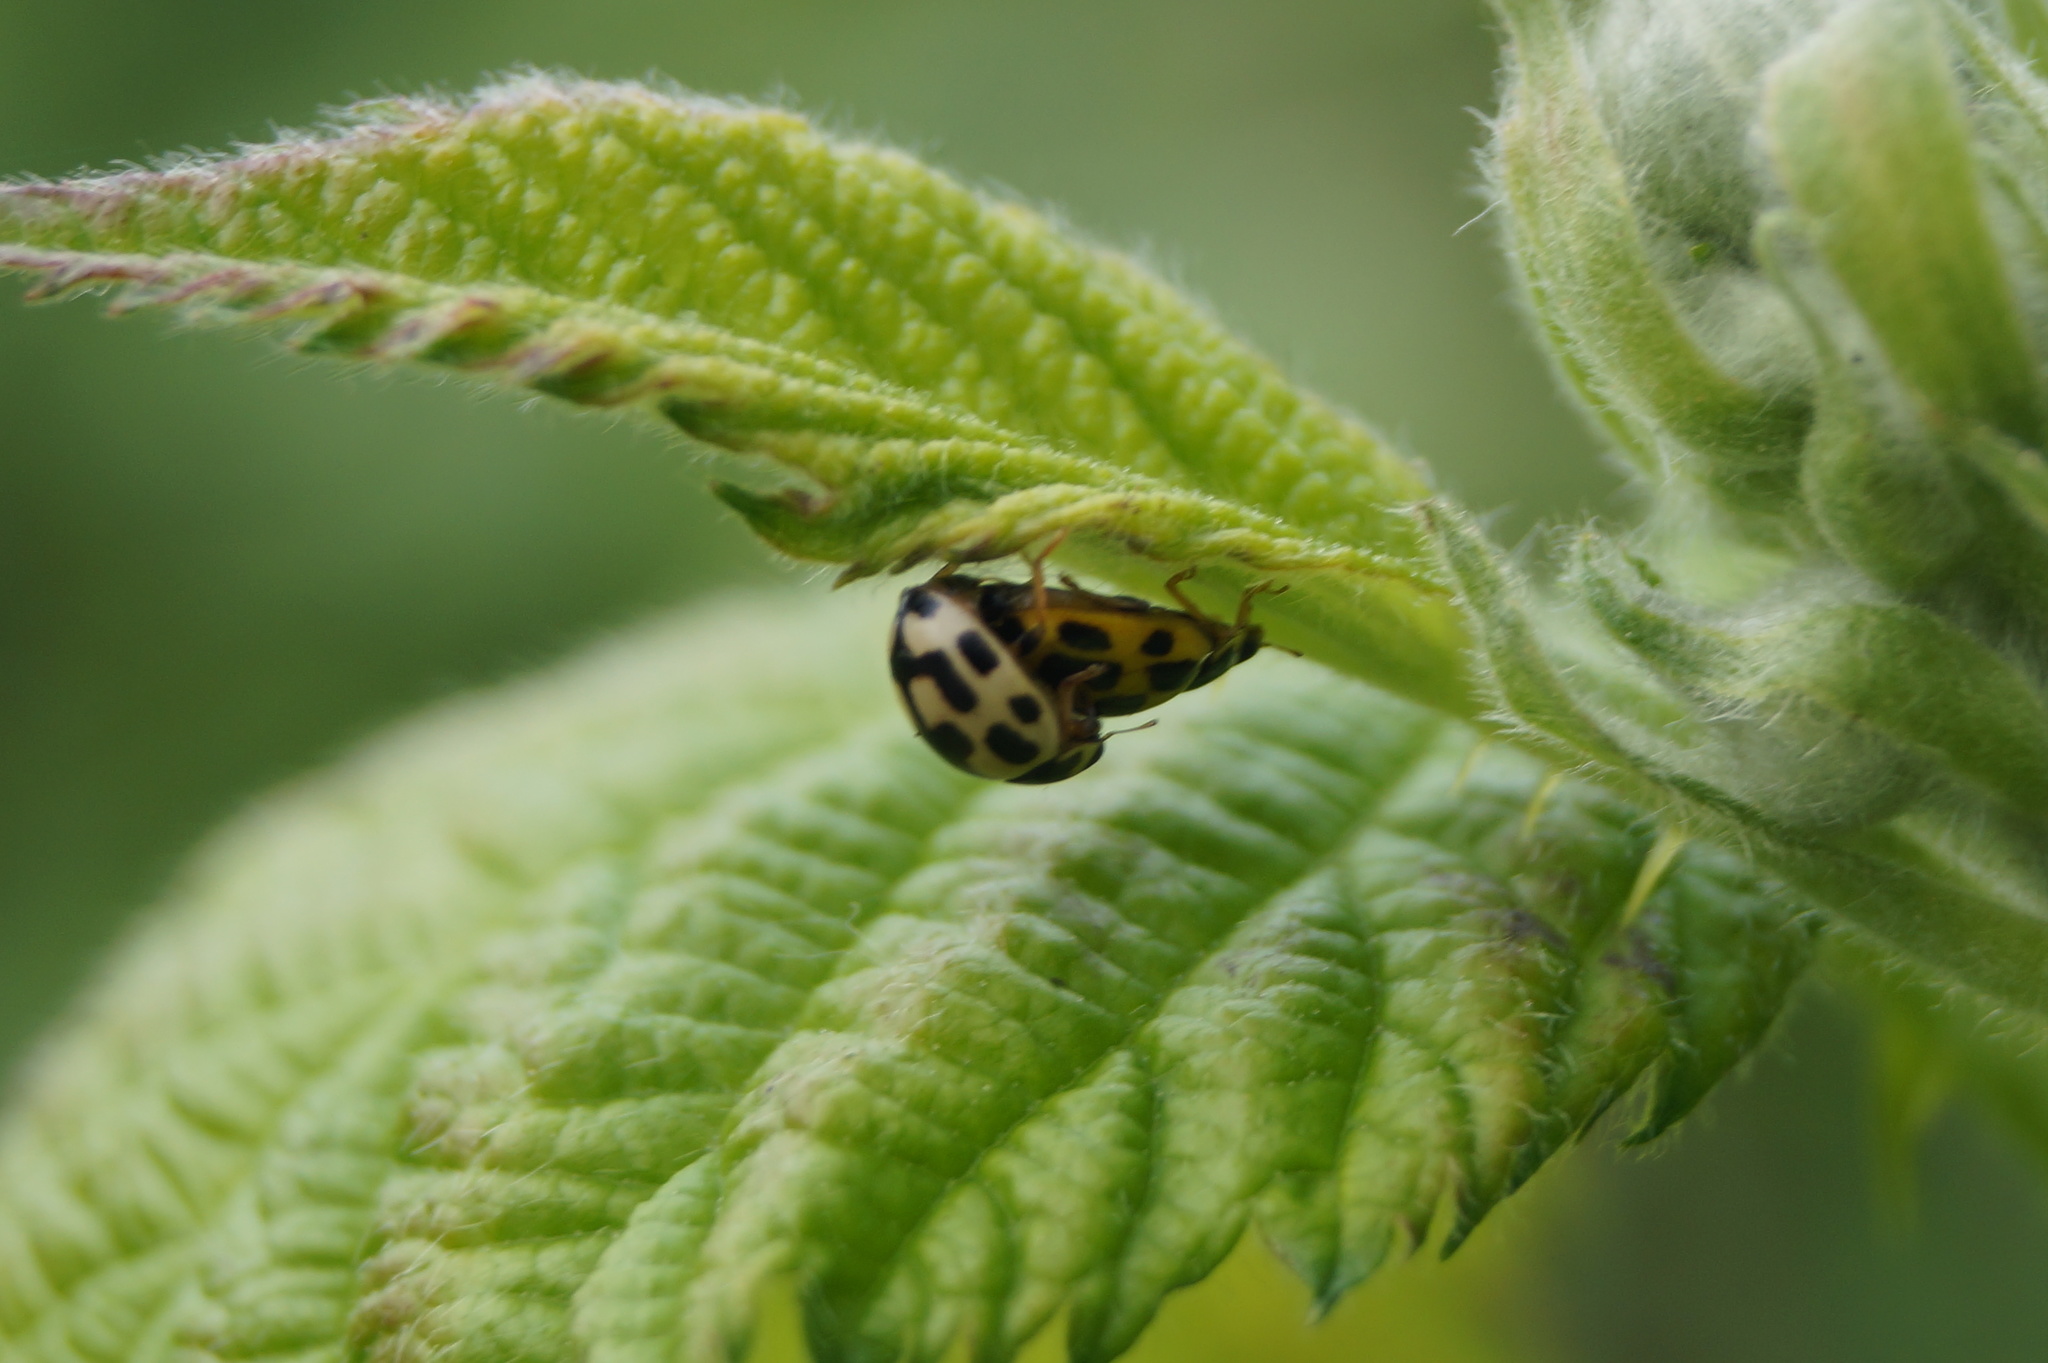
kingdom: Animalia
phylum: Arthropoda
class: Insecta
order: Coleoptera
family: Coccinellidae
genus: Propylaea
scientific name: Propylaea quatuordecimpunctata
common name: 14-spotted ladybird beetle
